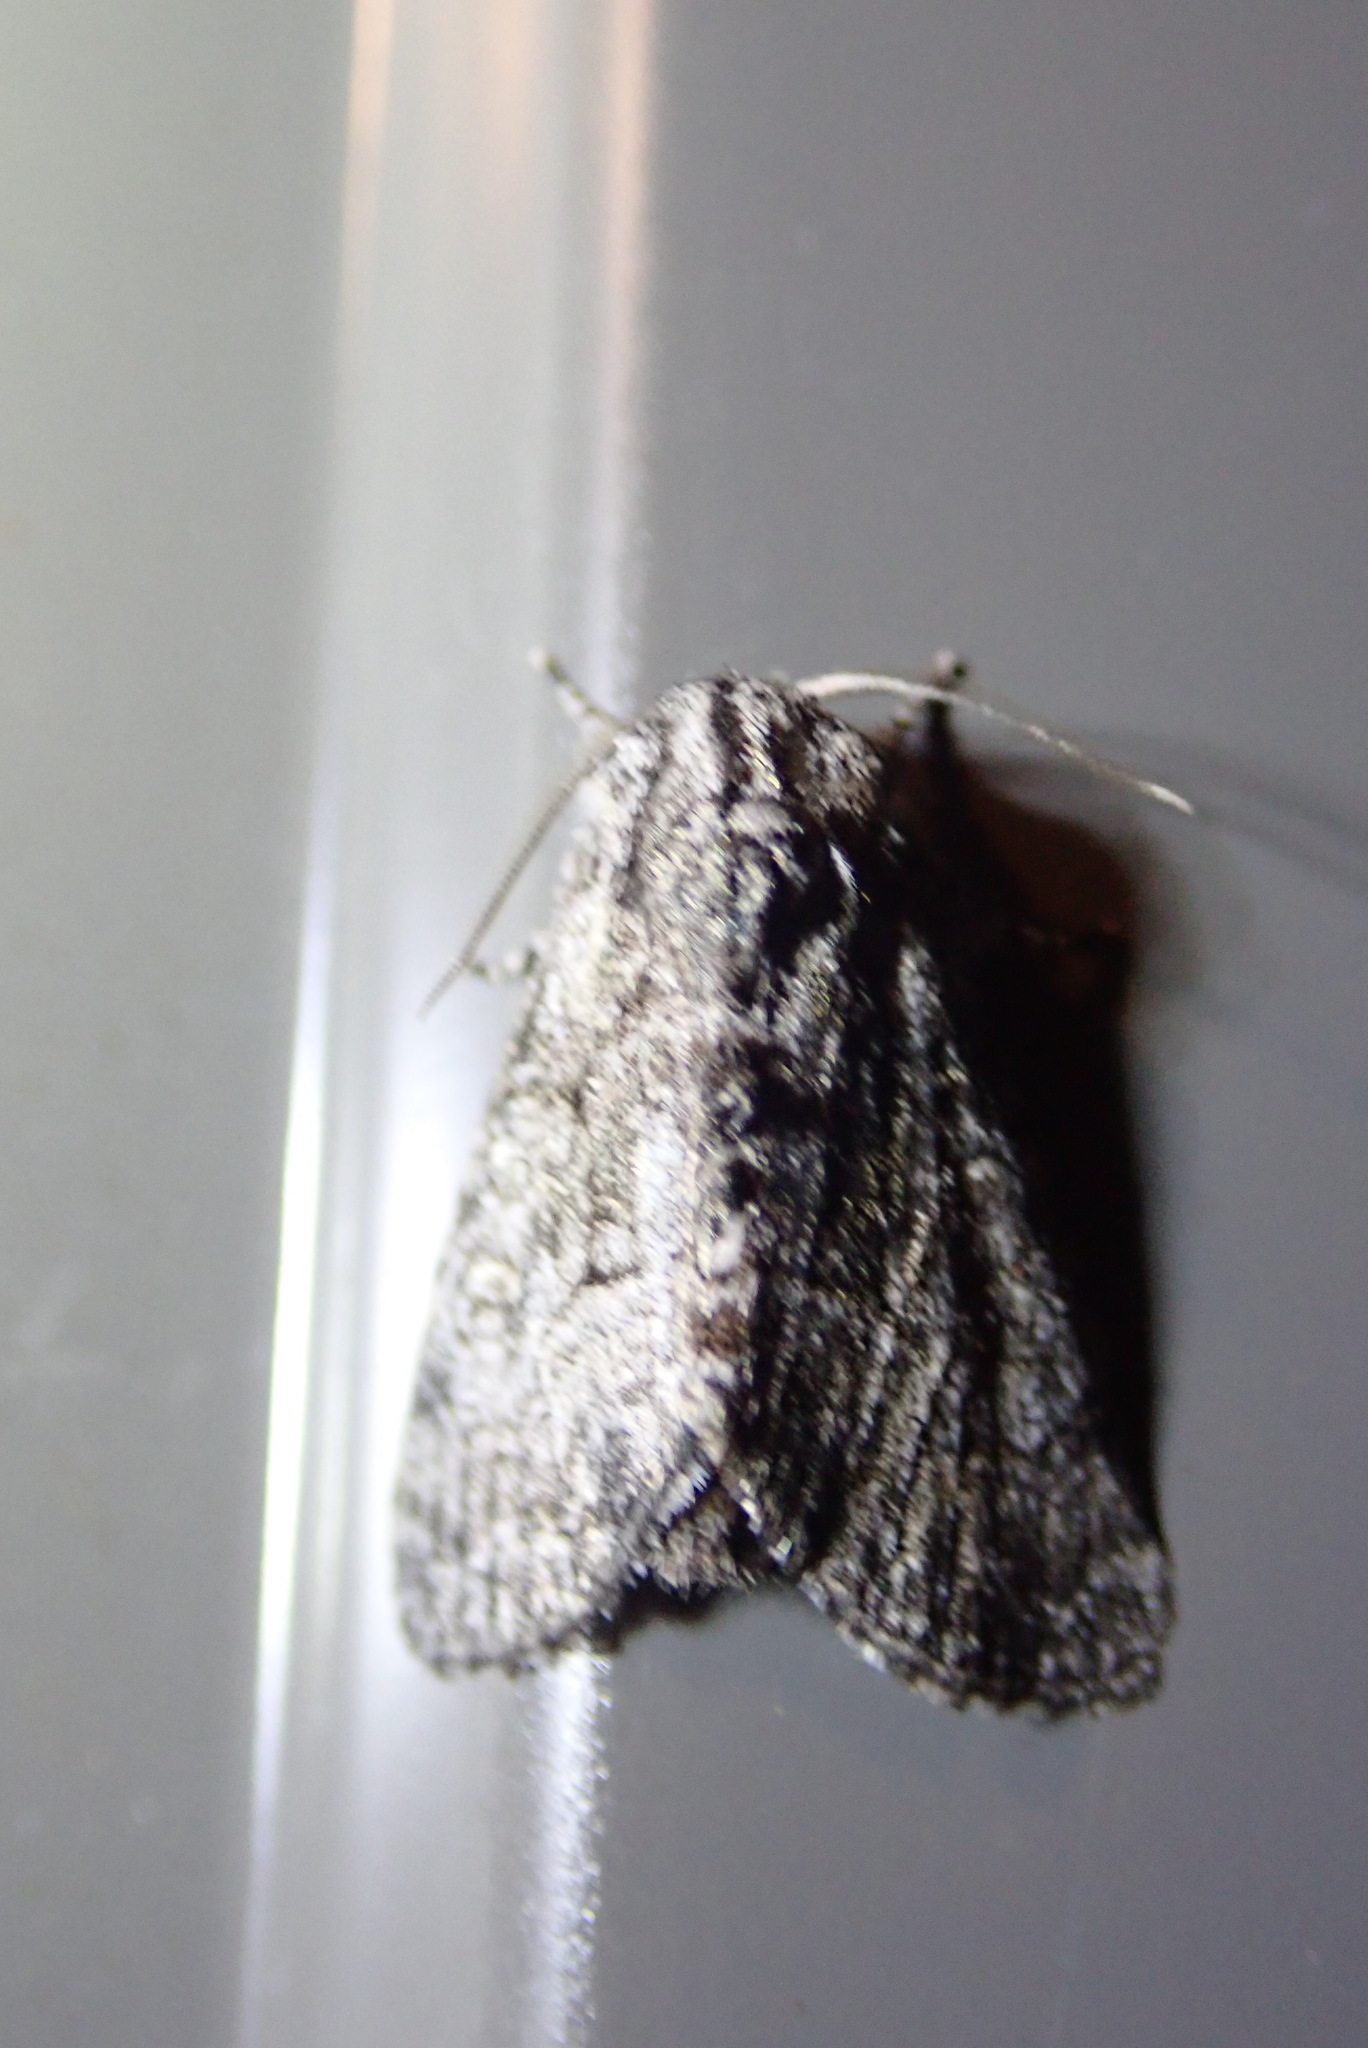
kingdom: Animalia
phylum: Arthropoda
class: Insecta
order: Lepidoptera
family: Noctuidae
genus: Raphia
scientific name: Raphia frater
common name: Brother
